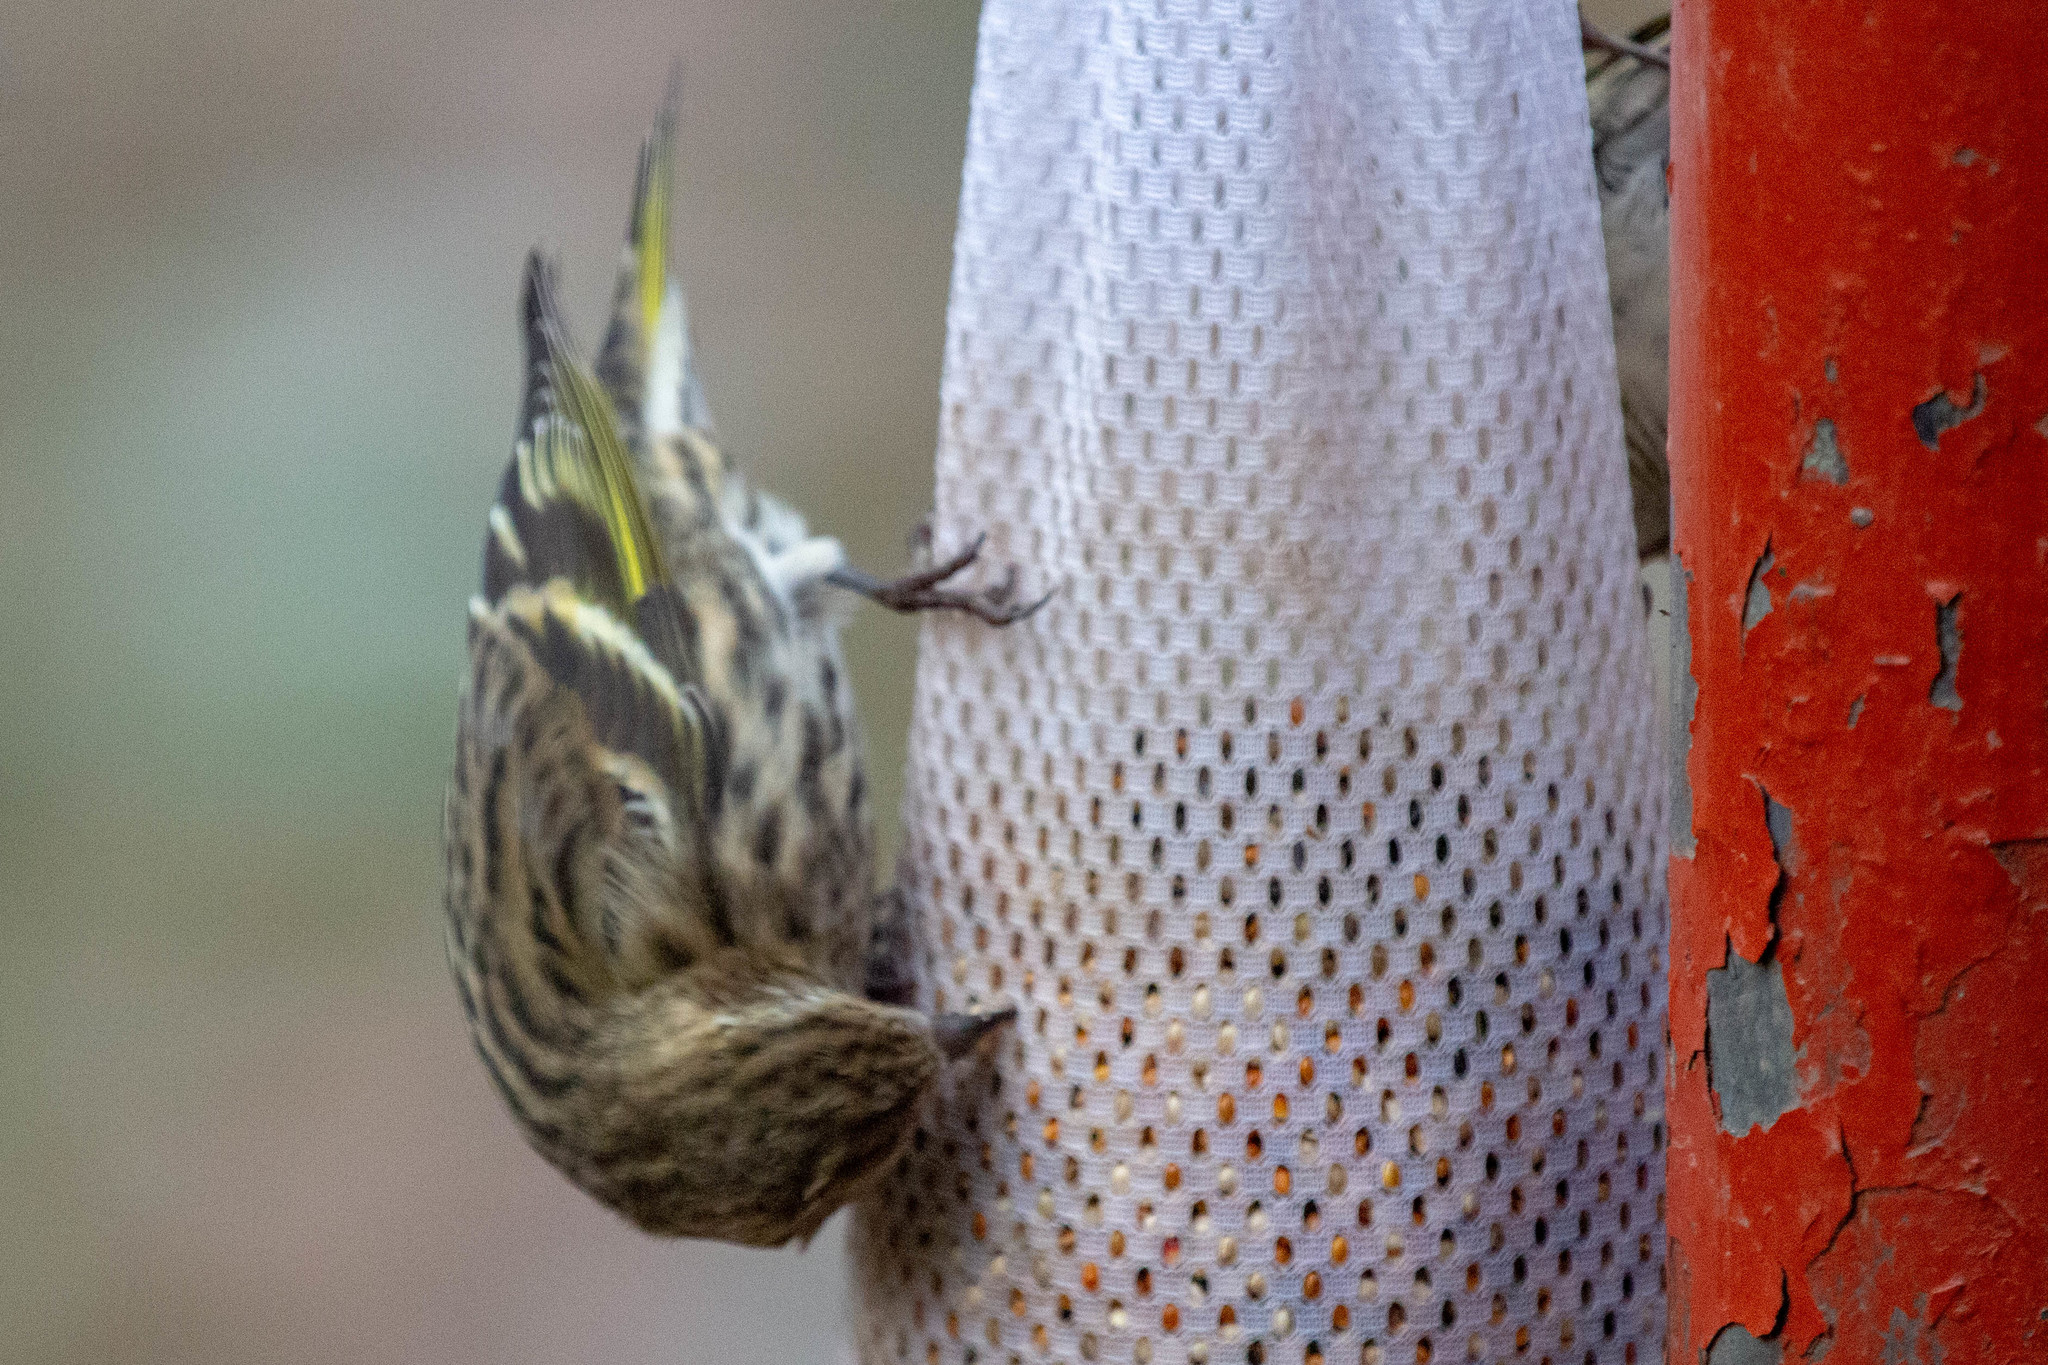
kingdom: Animalia
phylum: Chordata
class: Aves
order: Passeriformes
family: Fringillidae
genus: Spinus
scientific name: Spinus pinus
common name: Pine siskin
